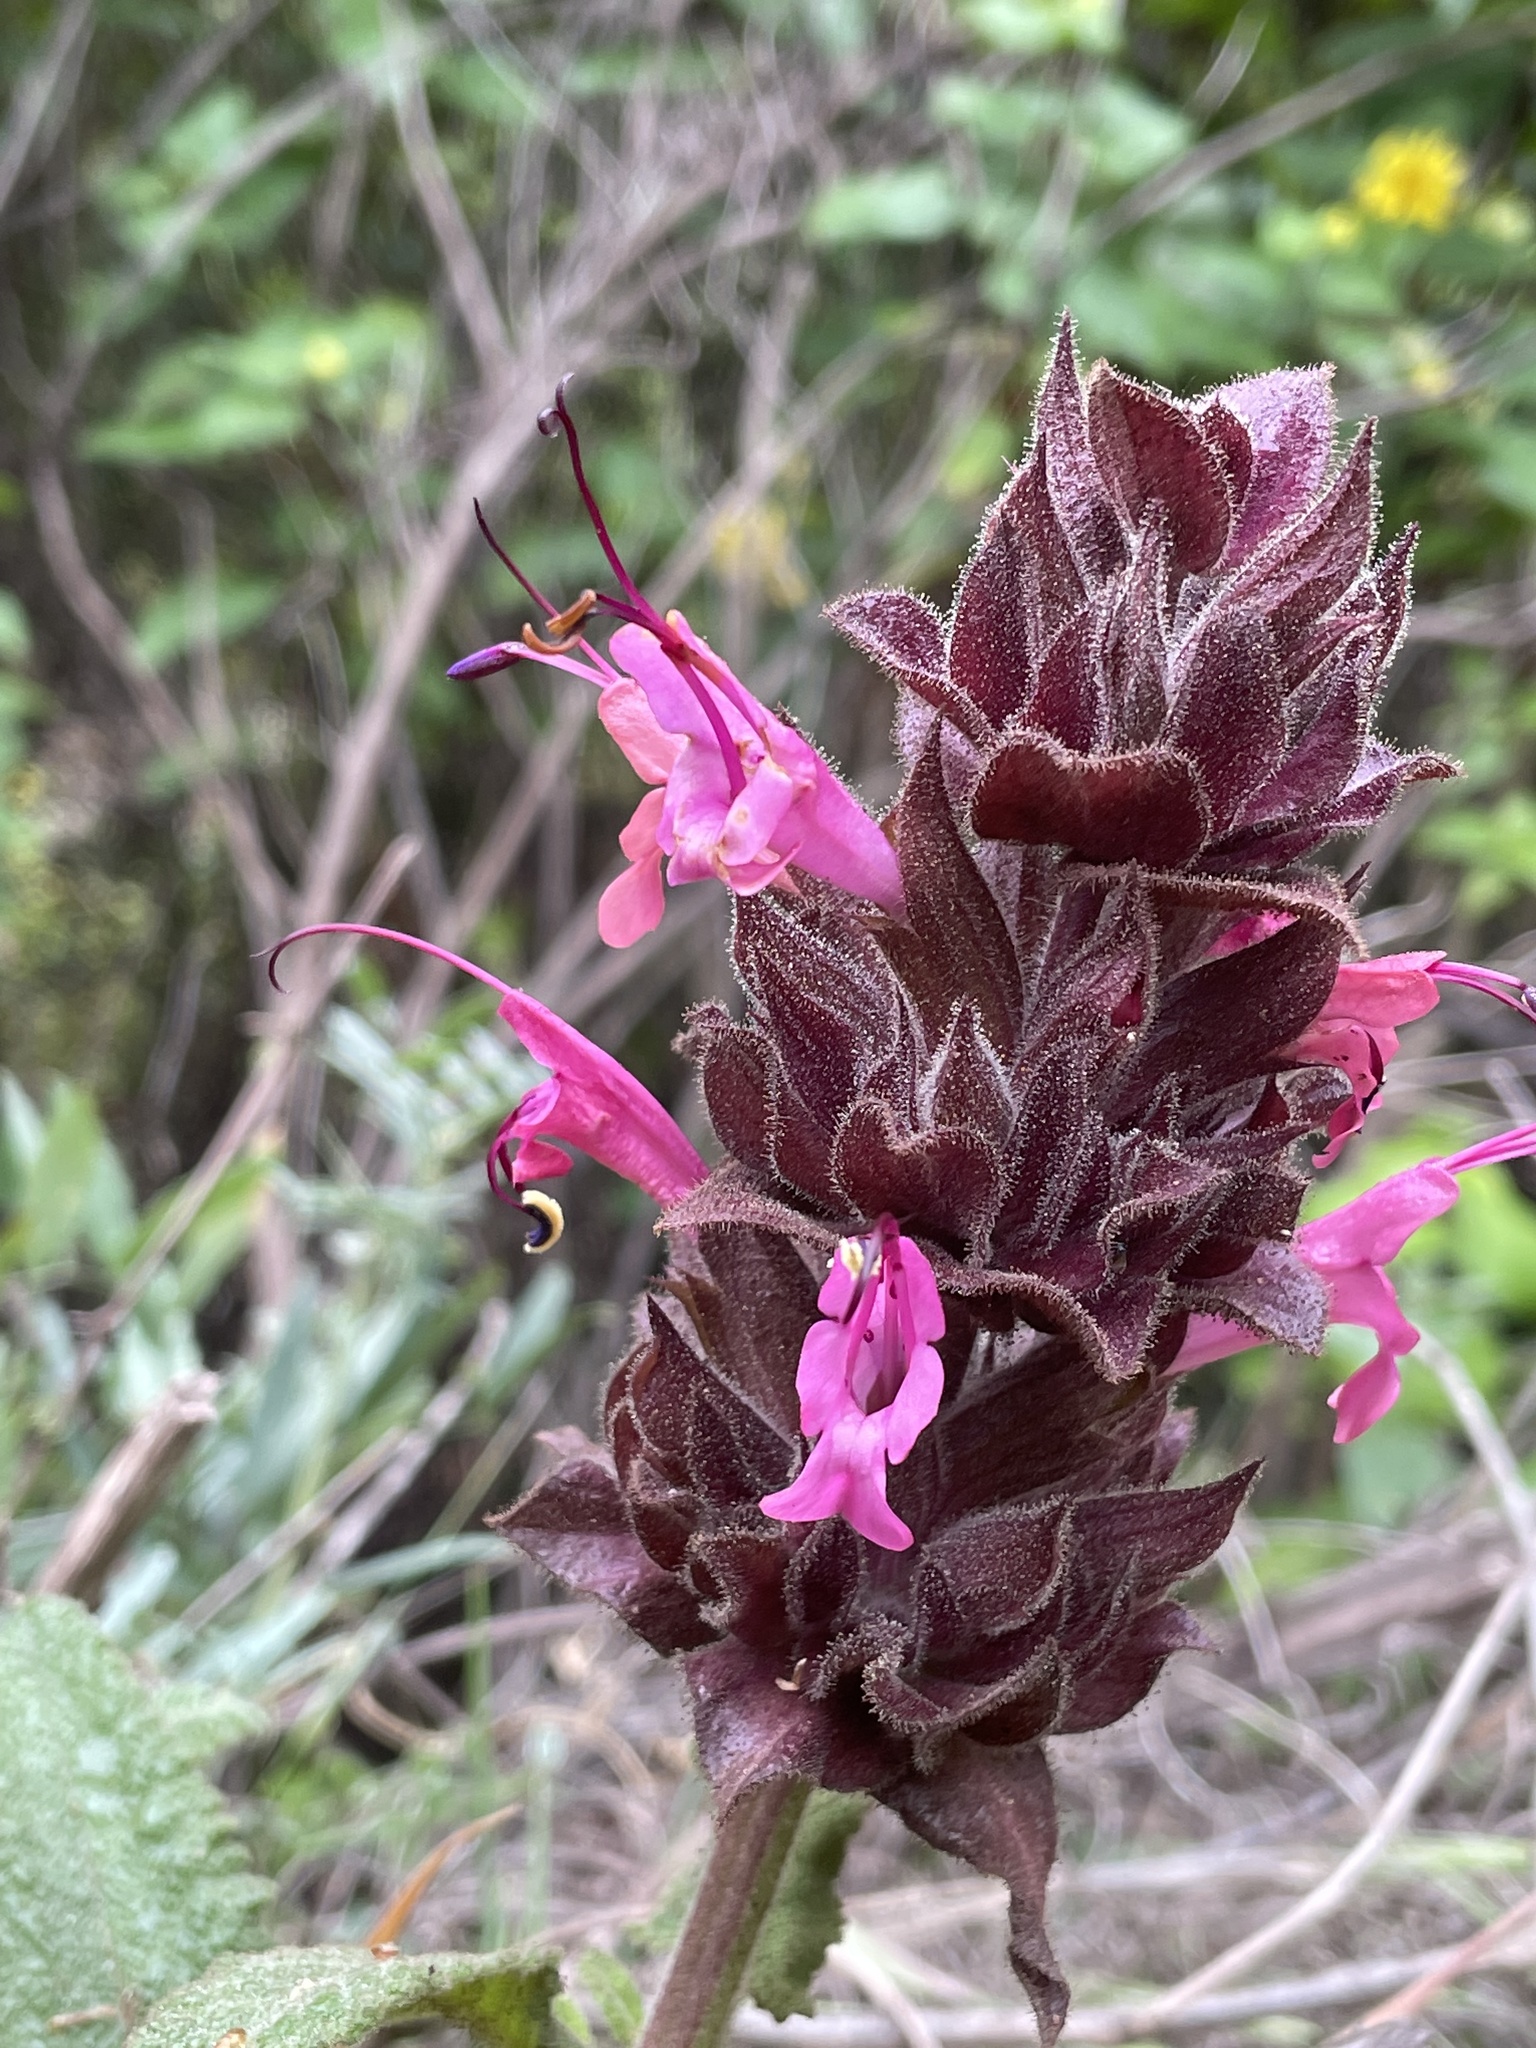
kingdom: Plantae
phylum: Tracheophyta
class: Magnoliopsida
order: Lamiales
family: Lamiaceae
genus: Salvia
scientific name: Salvia spathacea
